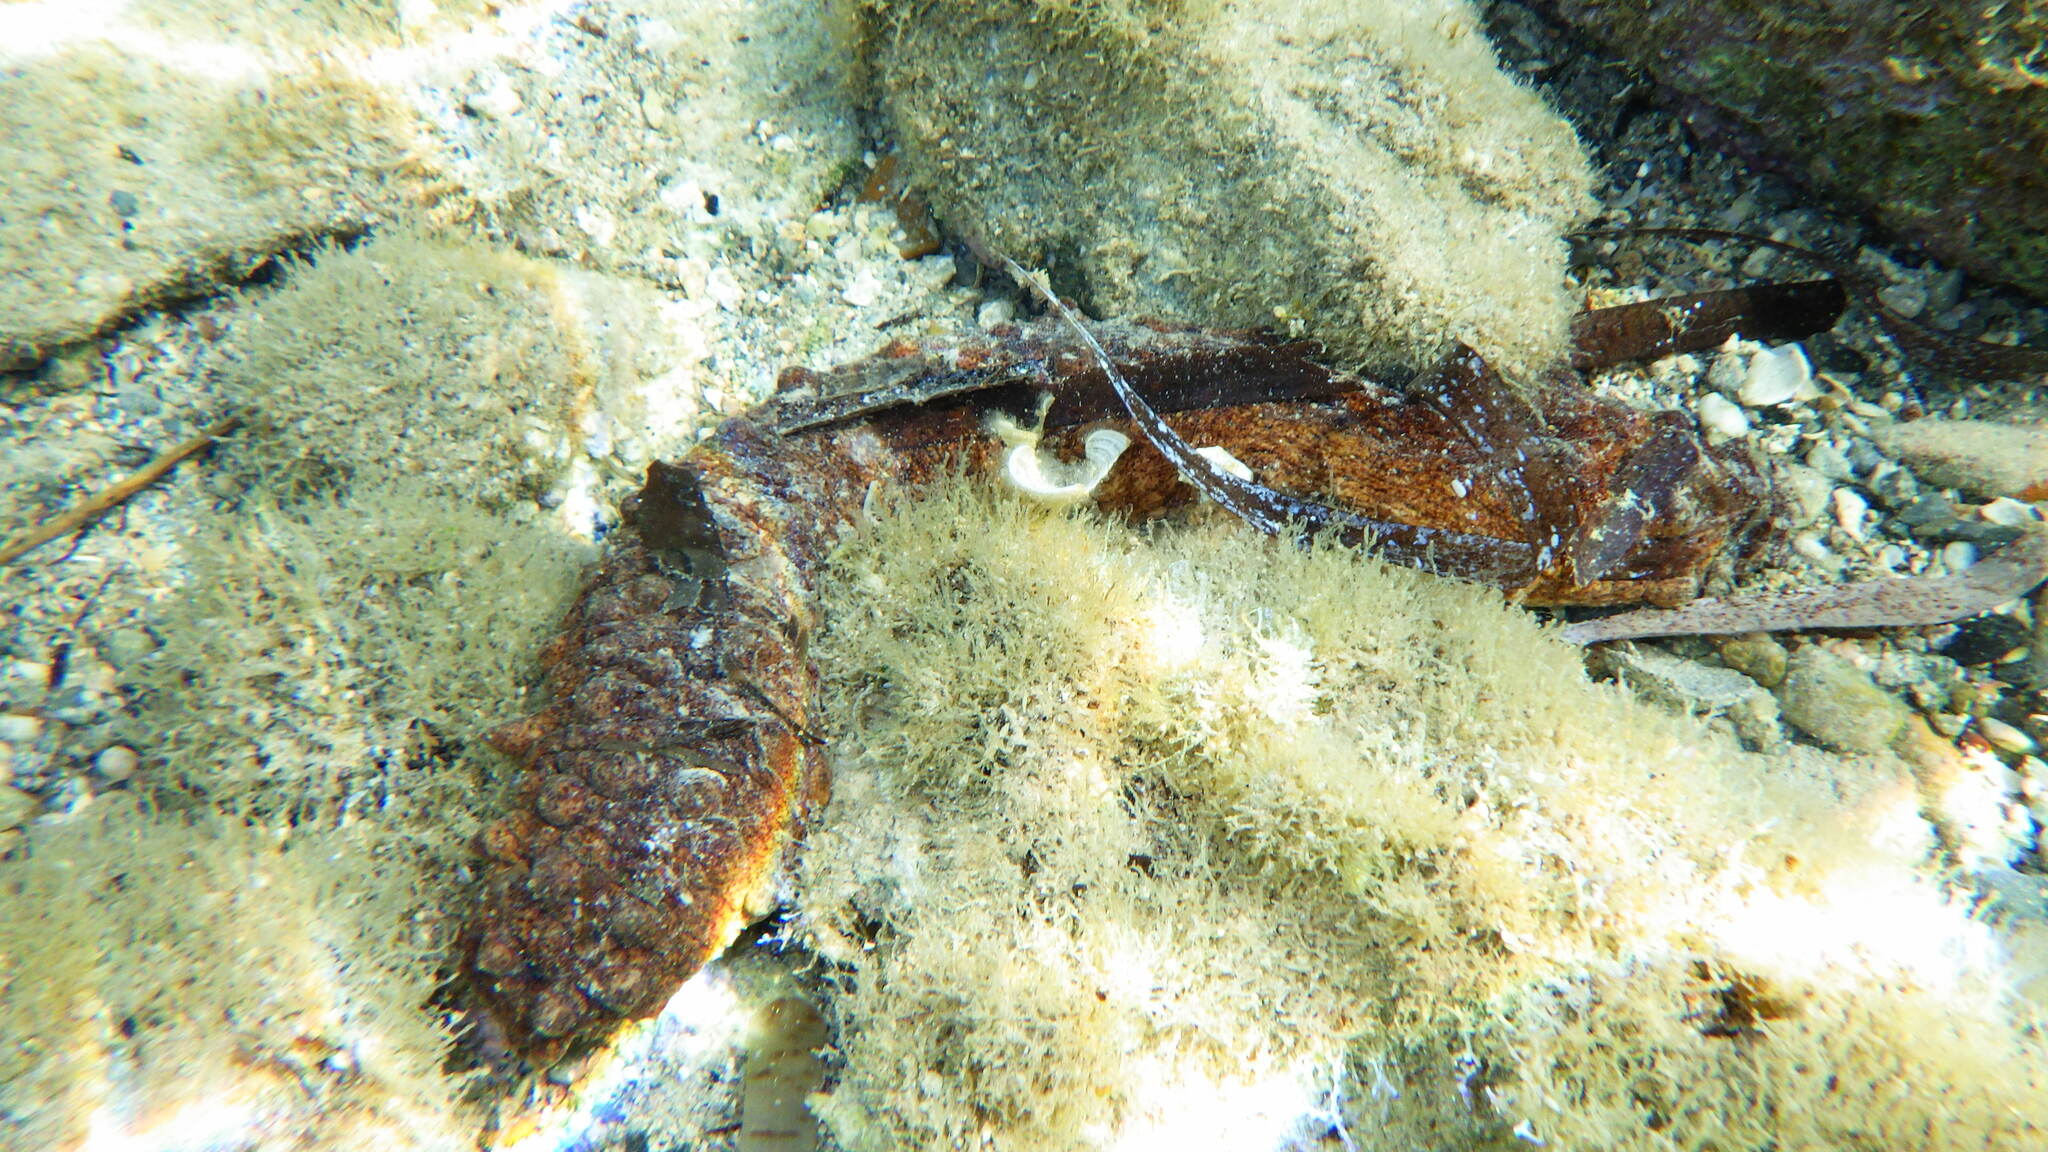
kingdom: Animalia
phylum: Echinodermata
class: Holothuroidea
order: Holothuriida
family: Holothuriidae
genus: Holothuria
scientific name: Holothuria
